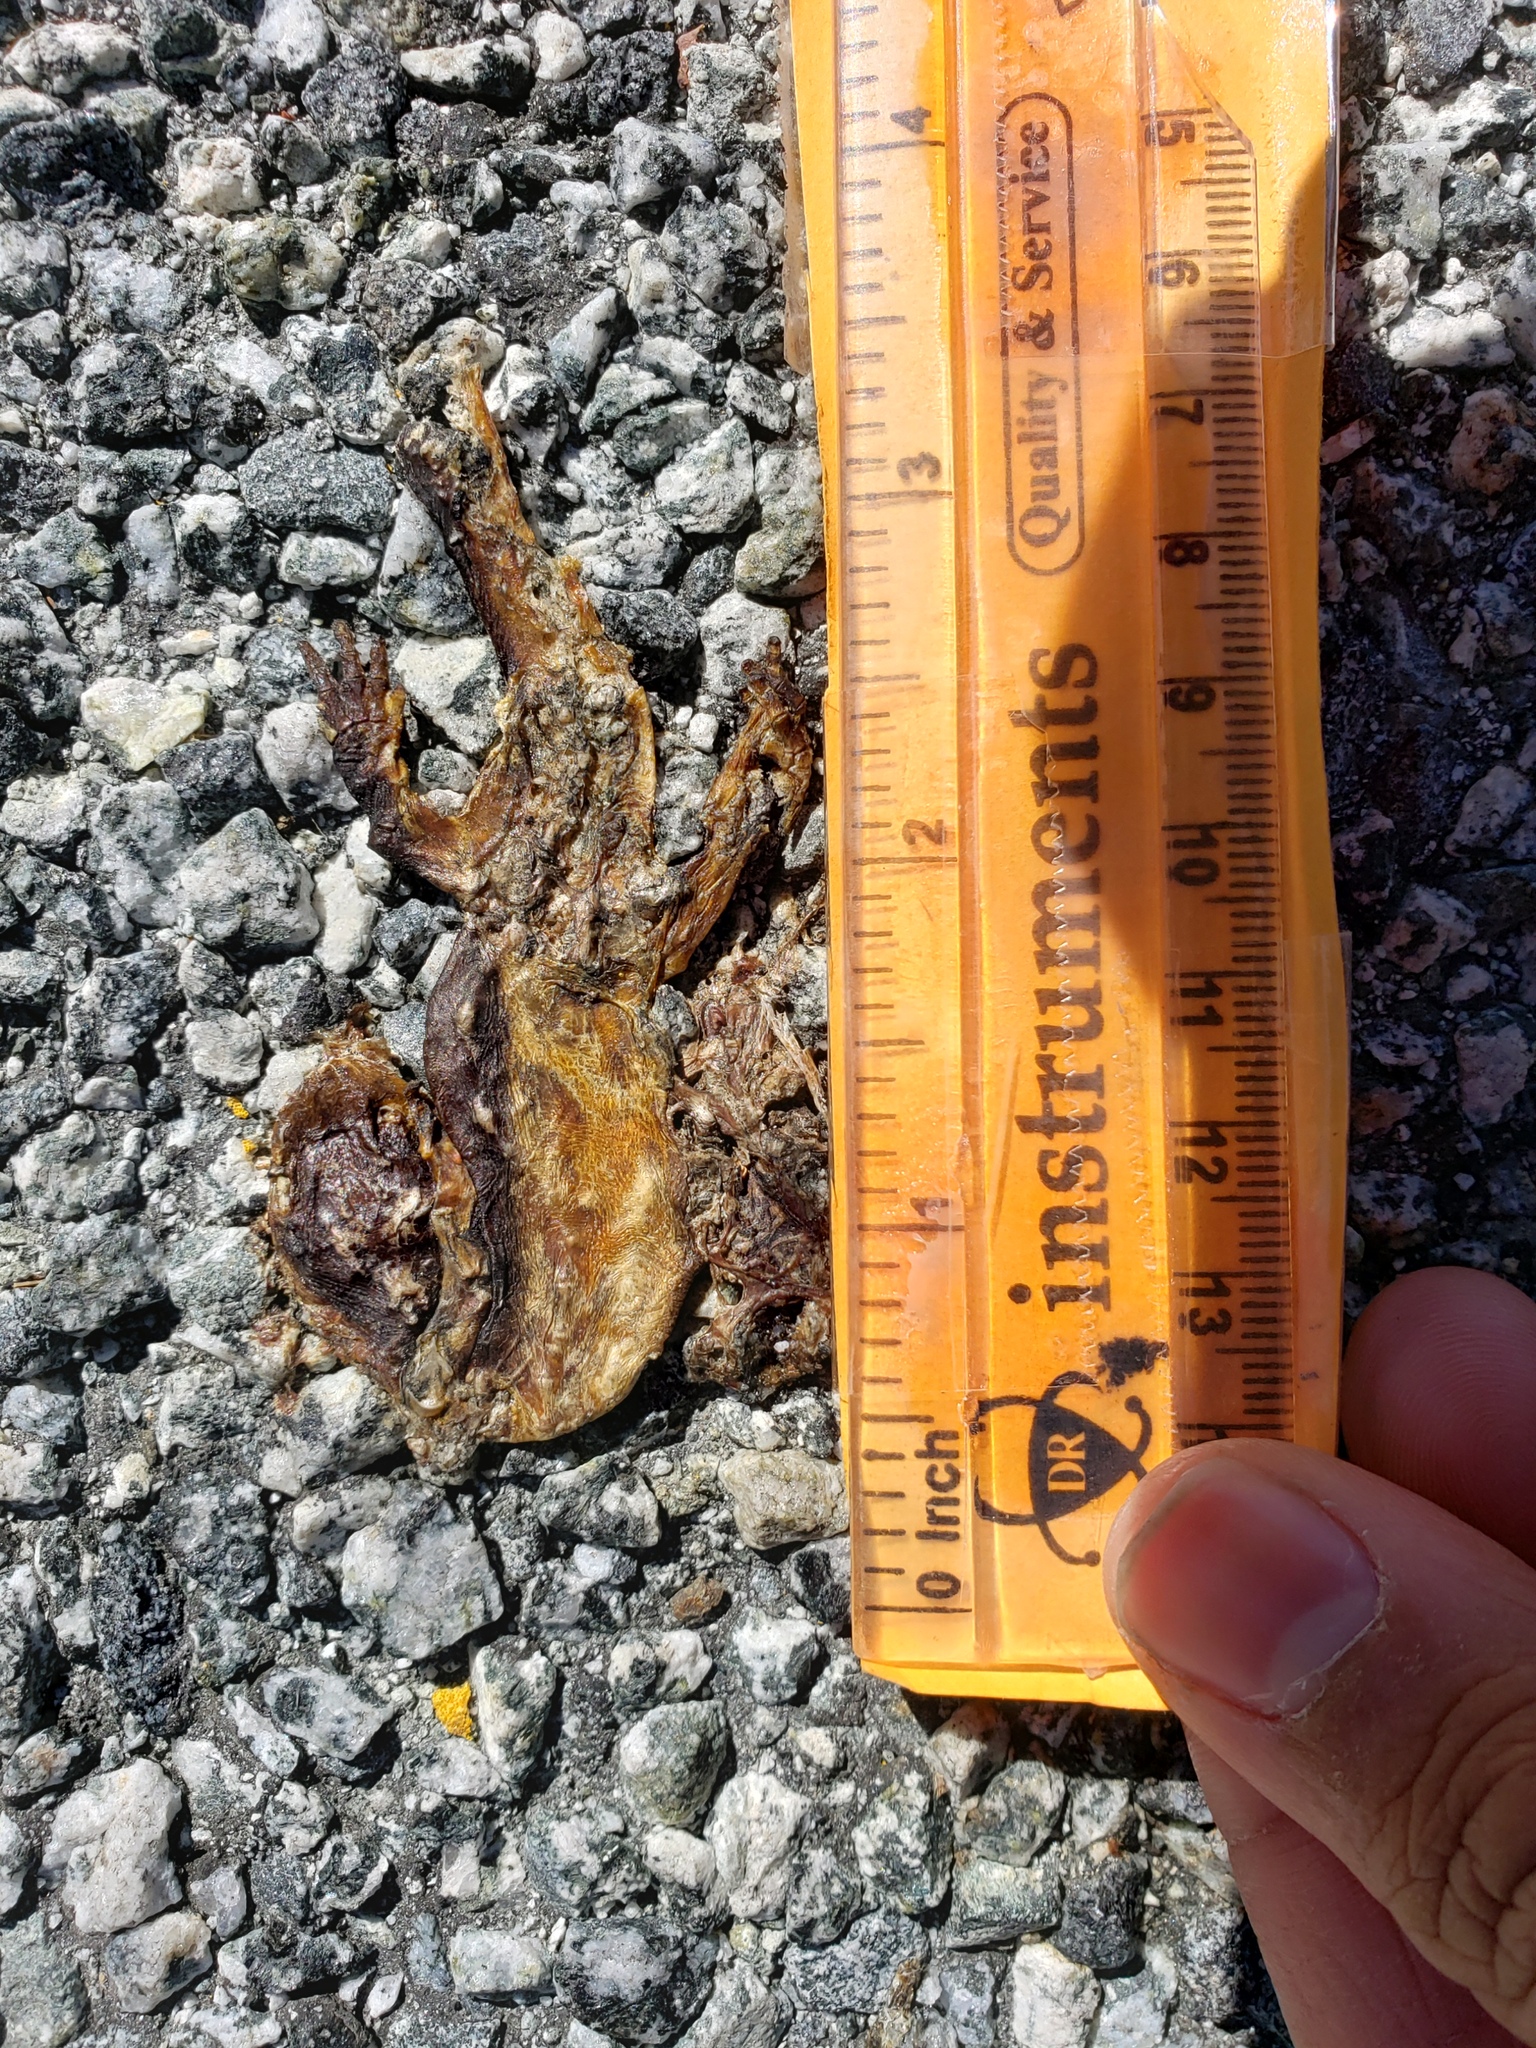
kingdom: Animalia
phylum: Chordata
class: Amphibia
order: Caudata
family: Salamandridae
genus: Taricha
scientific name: Taricha
